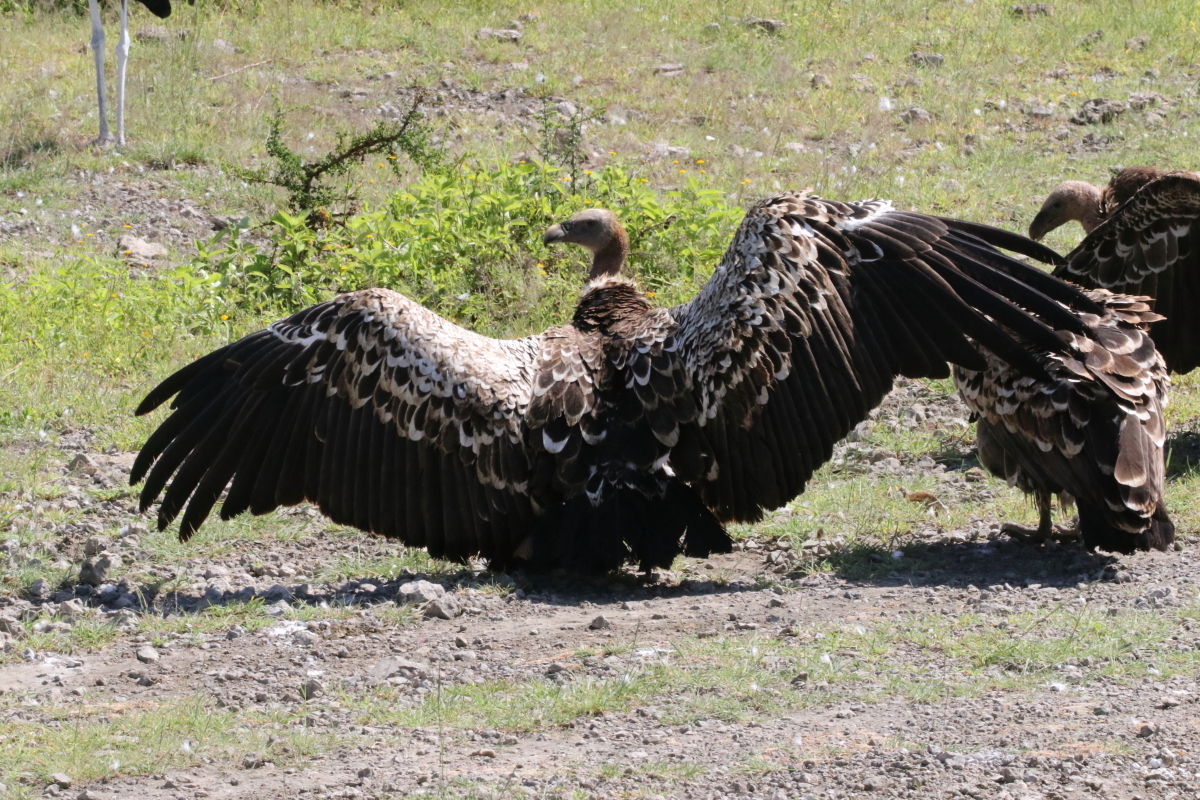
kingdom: Animalia
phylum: Chordata
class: Aves
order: Accipitriformes
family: Accipitridae
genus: Gyps
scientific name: Gyps rueppellii
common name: Rüppell's vulture
